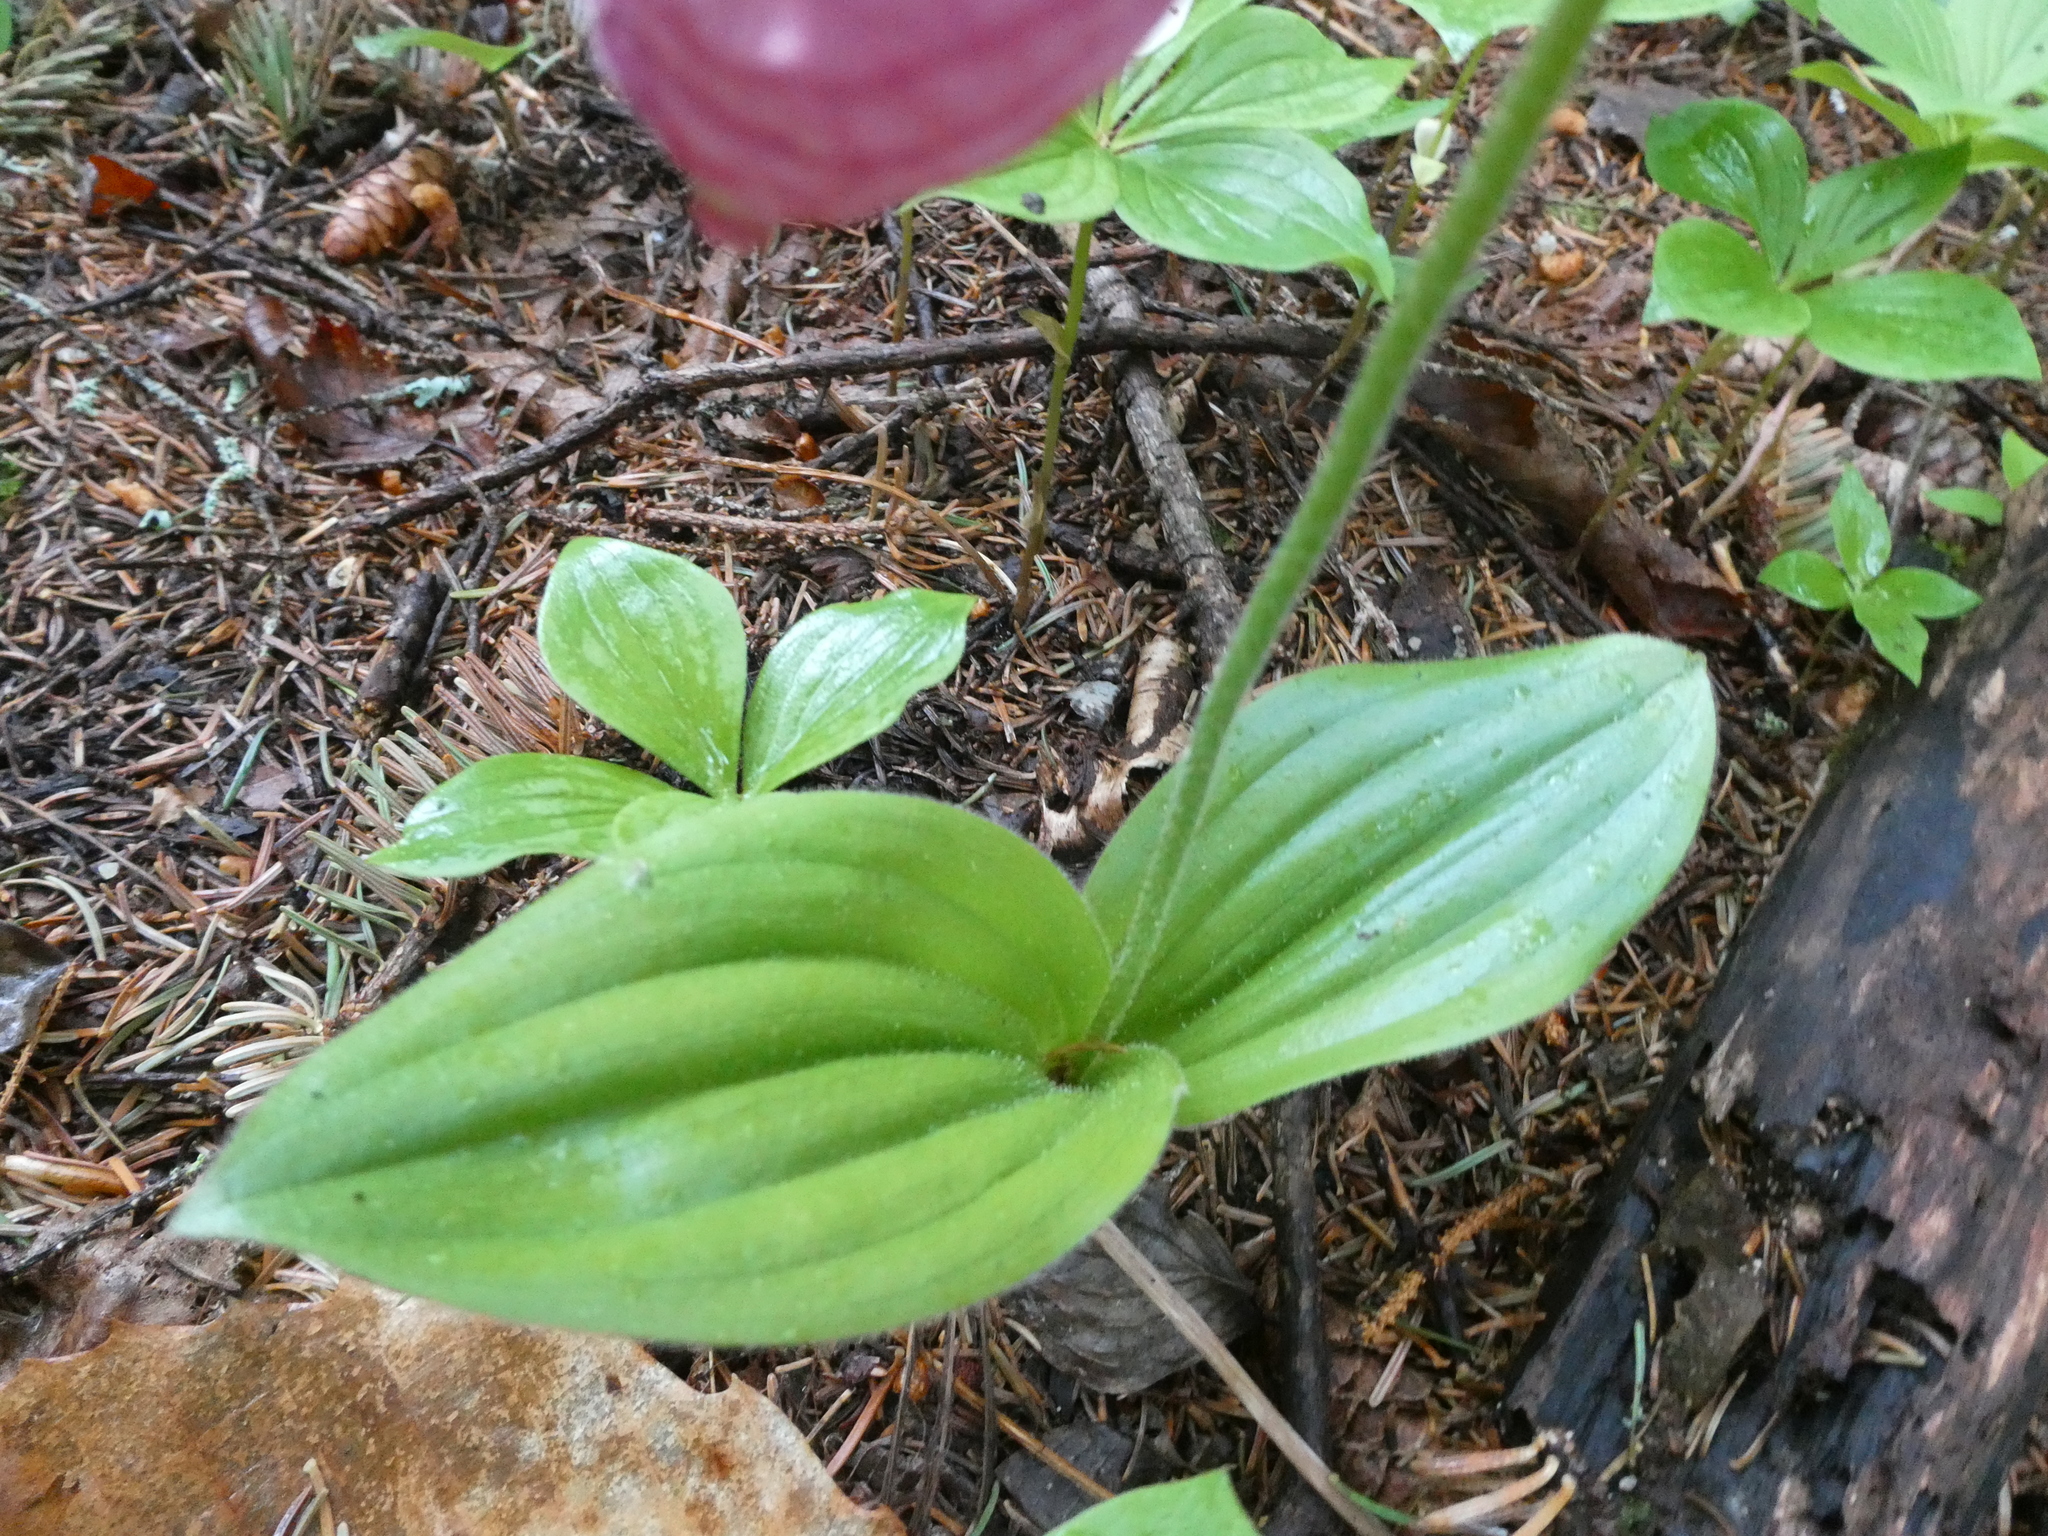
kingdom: Plantae
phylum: Tracheophyta
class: Liliopsida
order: Asparagales
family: Orchidaceae
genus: Cypripedium
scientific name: Cypripedium acaule
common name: Pink lady's-slipper
